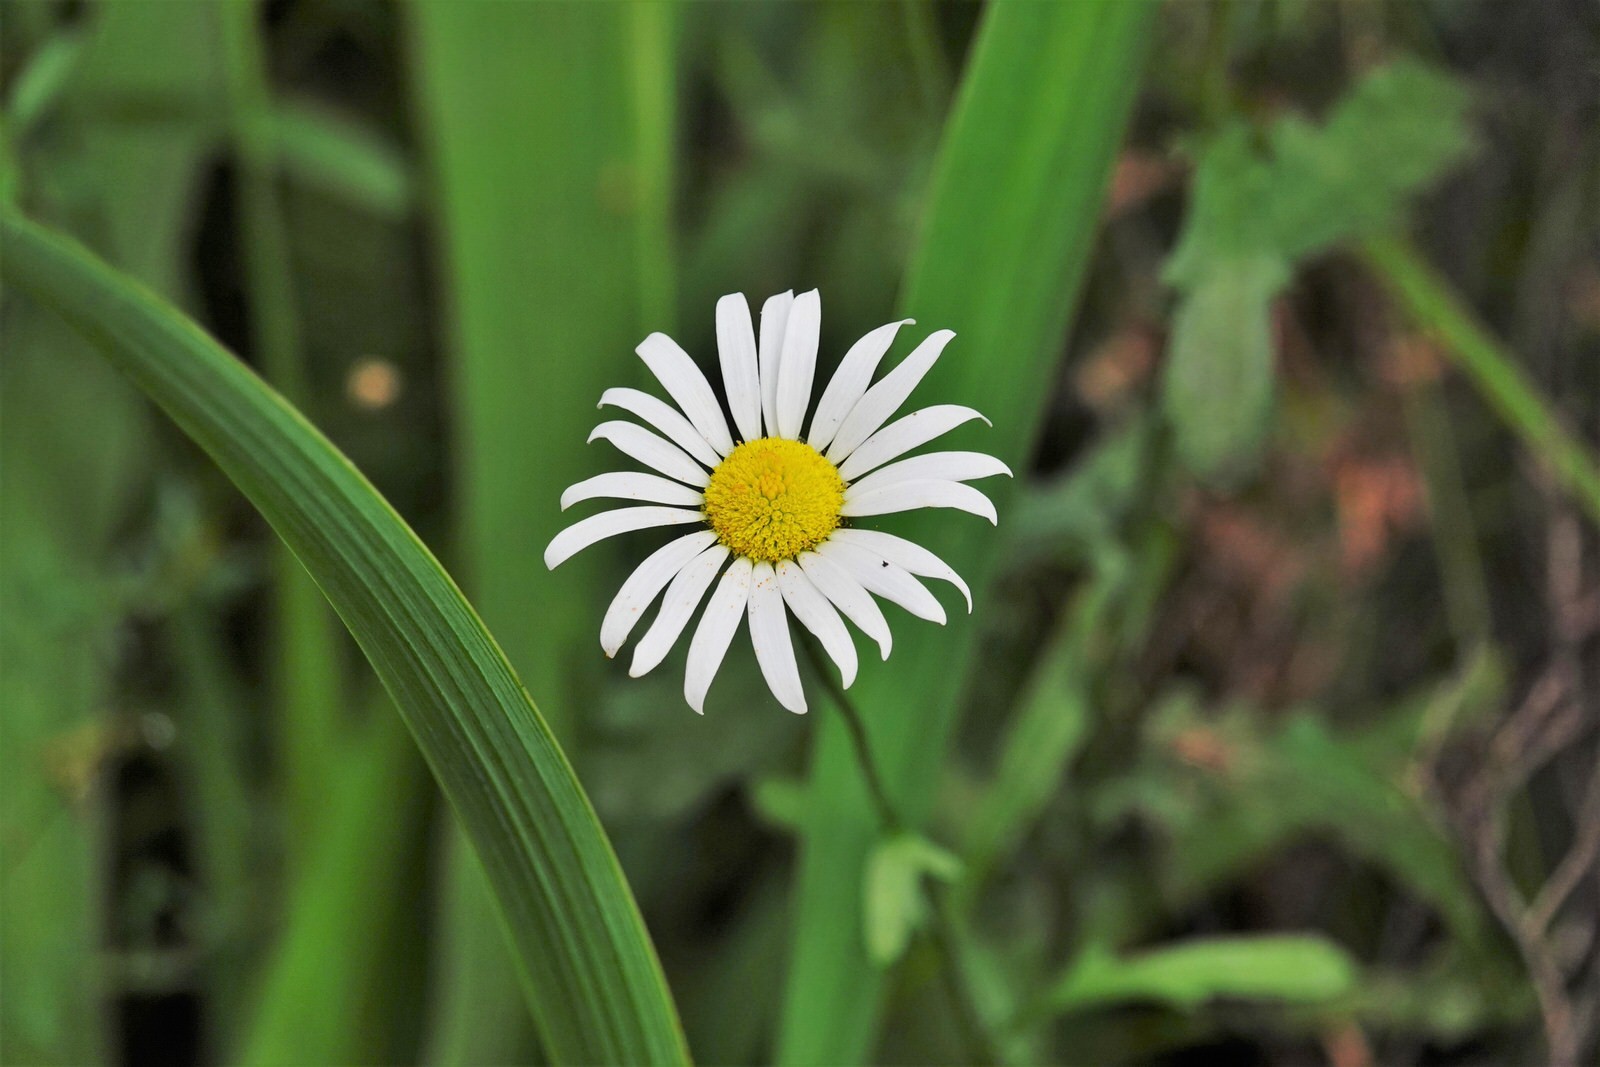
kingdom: Plantae
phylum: Tracheophyta
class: Magnoliopsida
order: Asterales
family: Asteraceae
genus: Leucanthemum
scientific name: Leucanthemum vulgare
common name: Oxeye daisy
